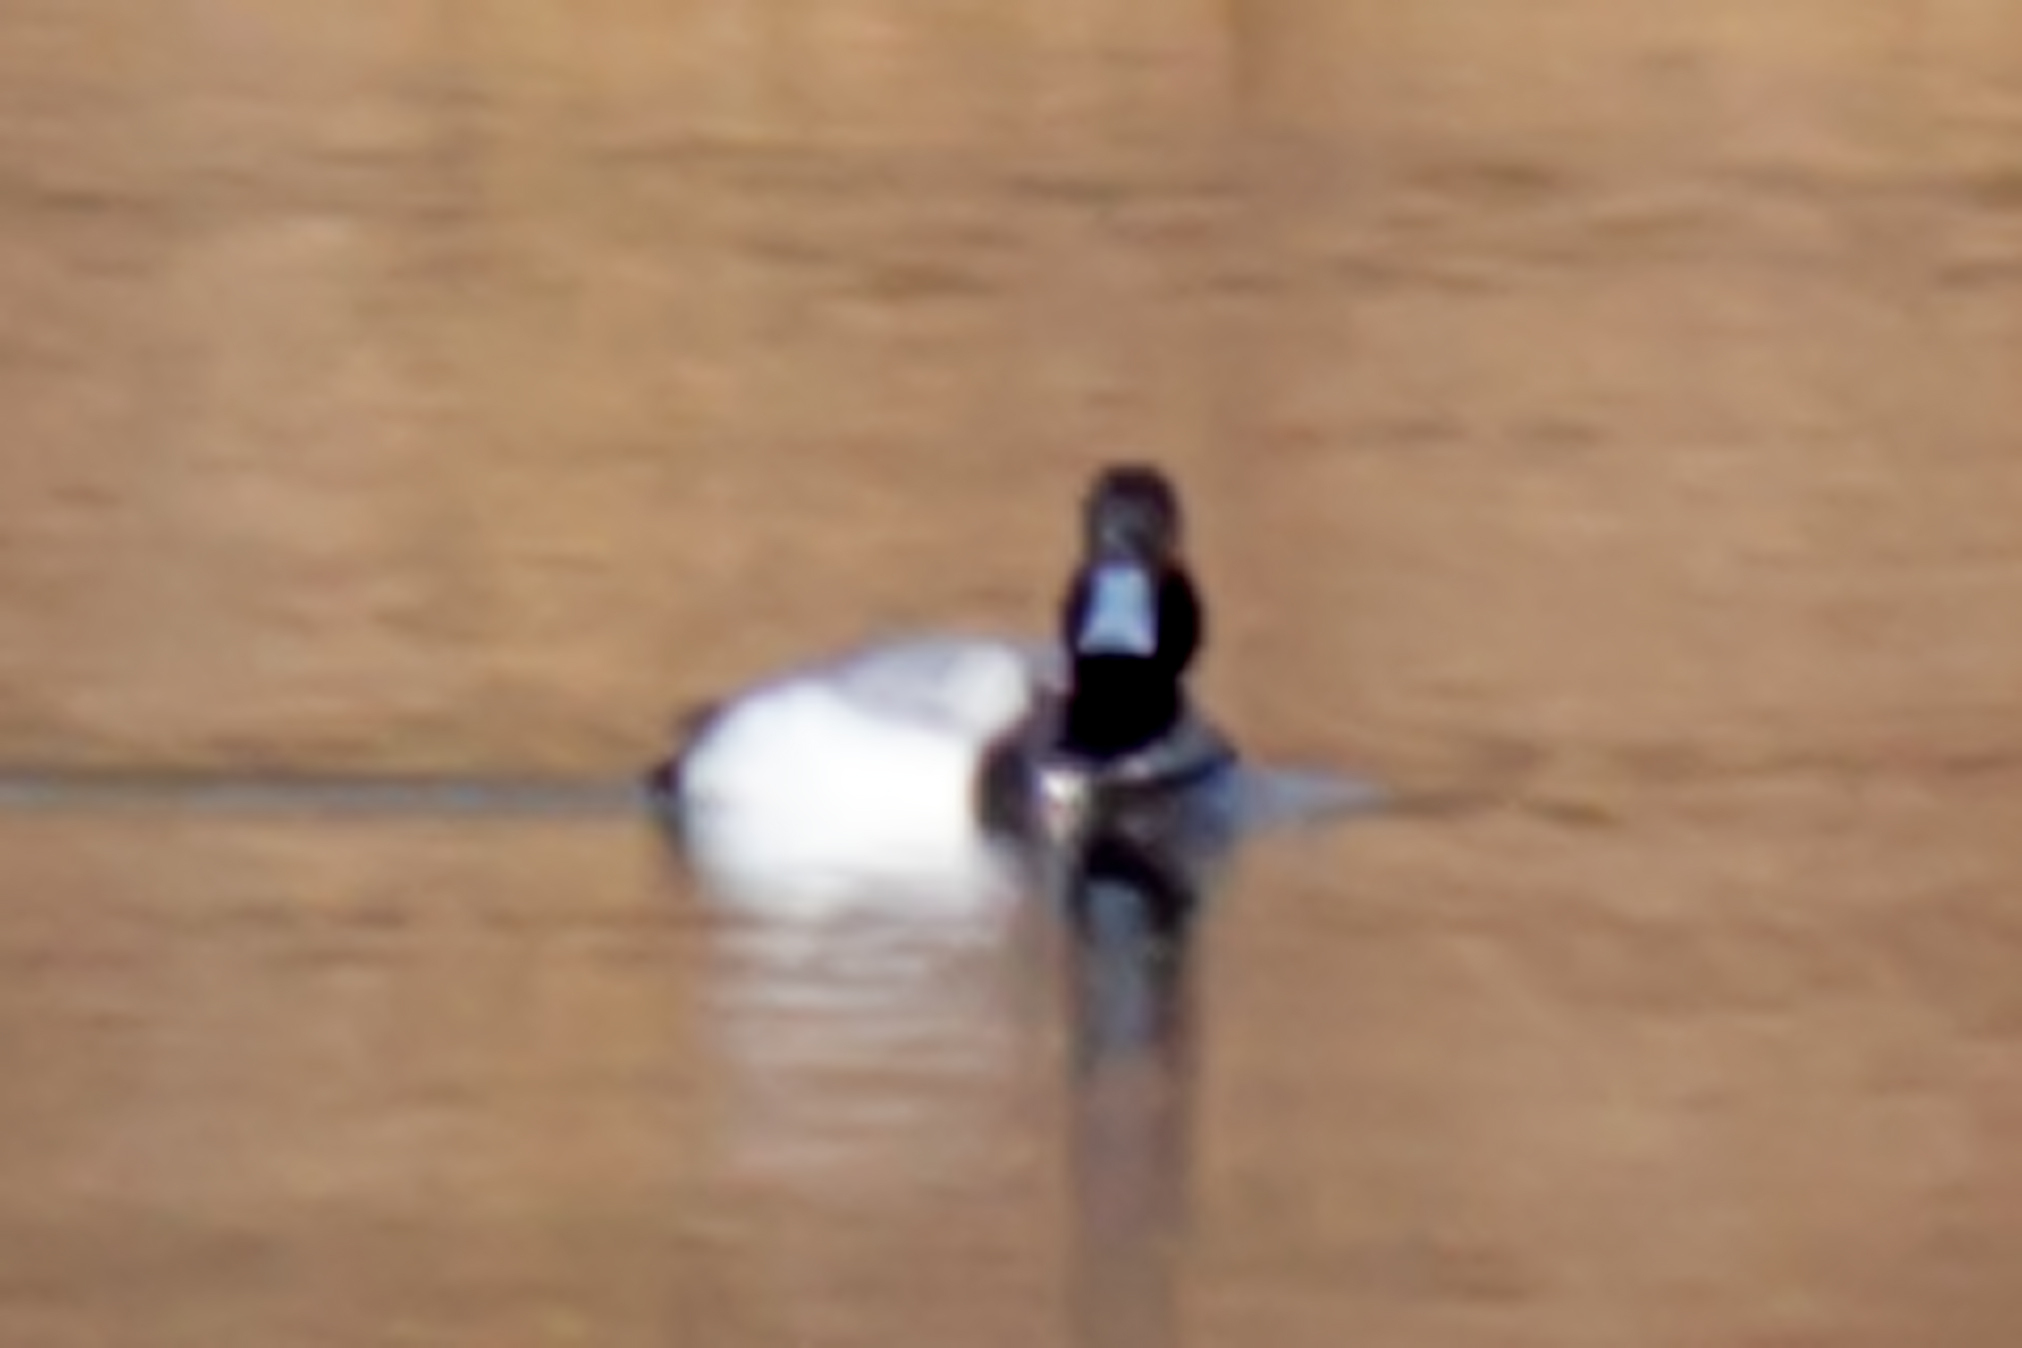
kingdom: Animalia
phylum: Chordata
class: Aves
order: Anseriformes
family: Anatidae
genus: Aythya
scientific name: Aythya affinis
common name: Lesser scaup
